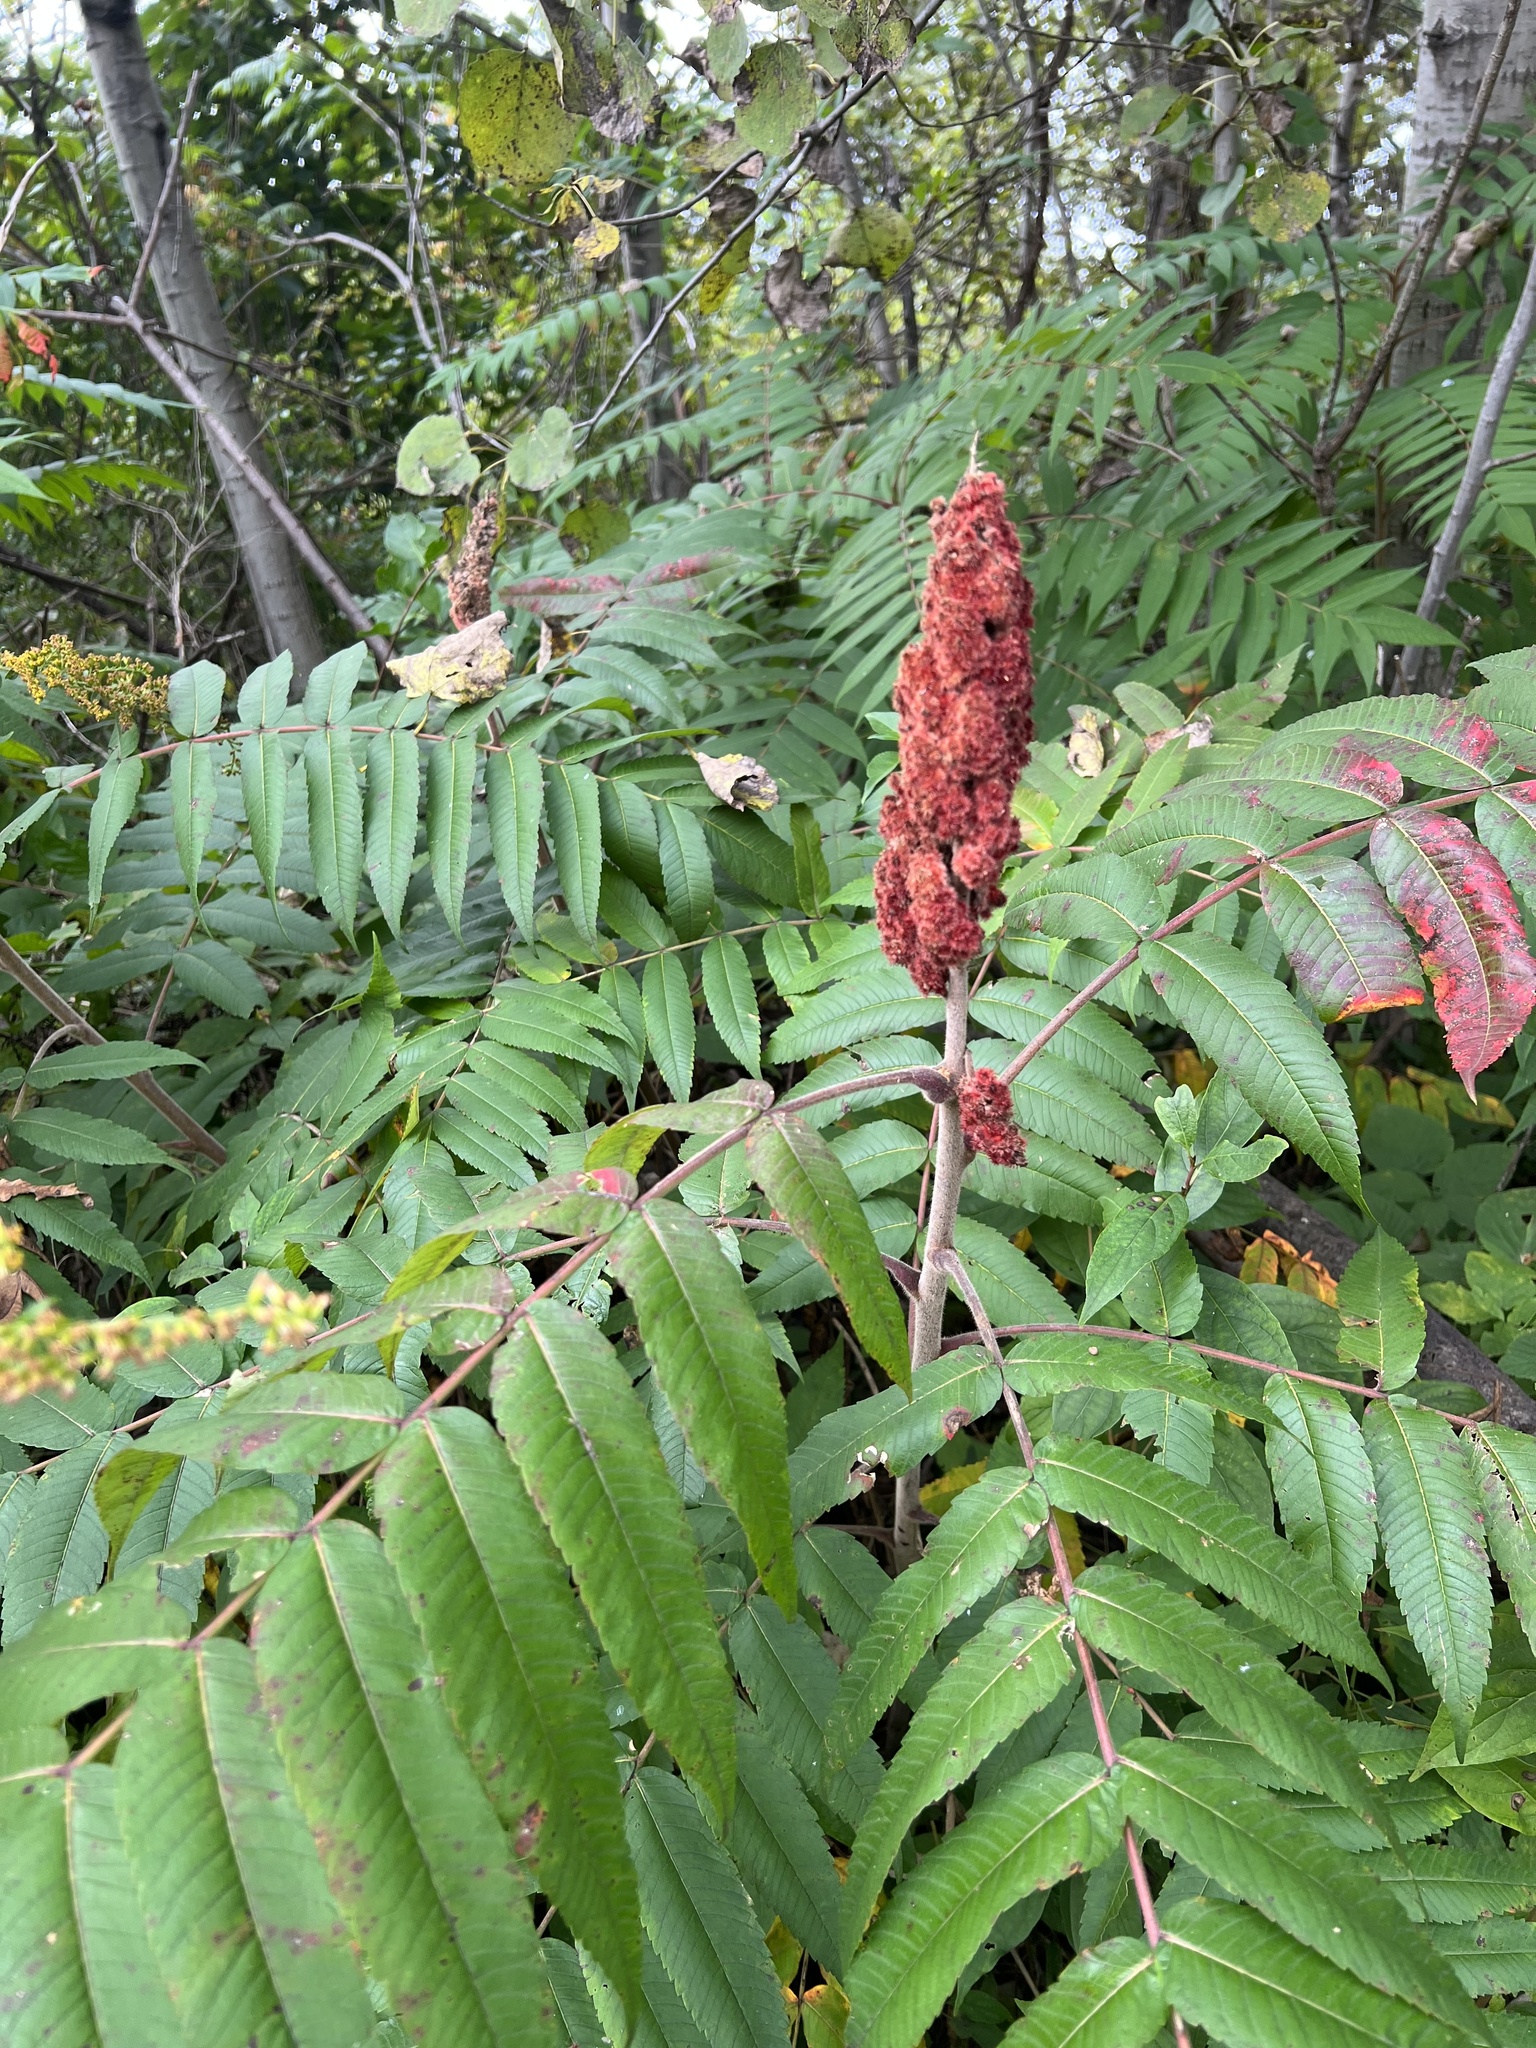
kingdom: Plantae
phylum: Tracheophyta
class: Magnoliopsida
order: Sapindales
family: Anacardiaceae
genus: Rhus
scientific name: Rhus typhina
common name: Staghorn sumac
